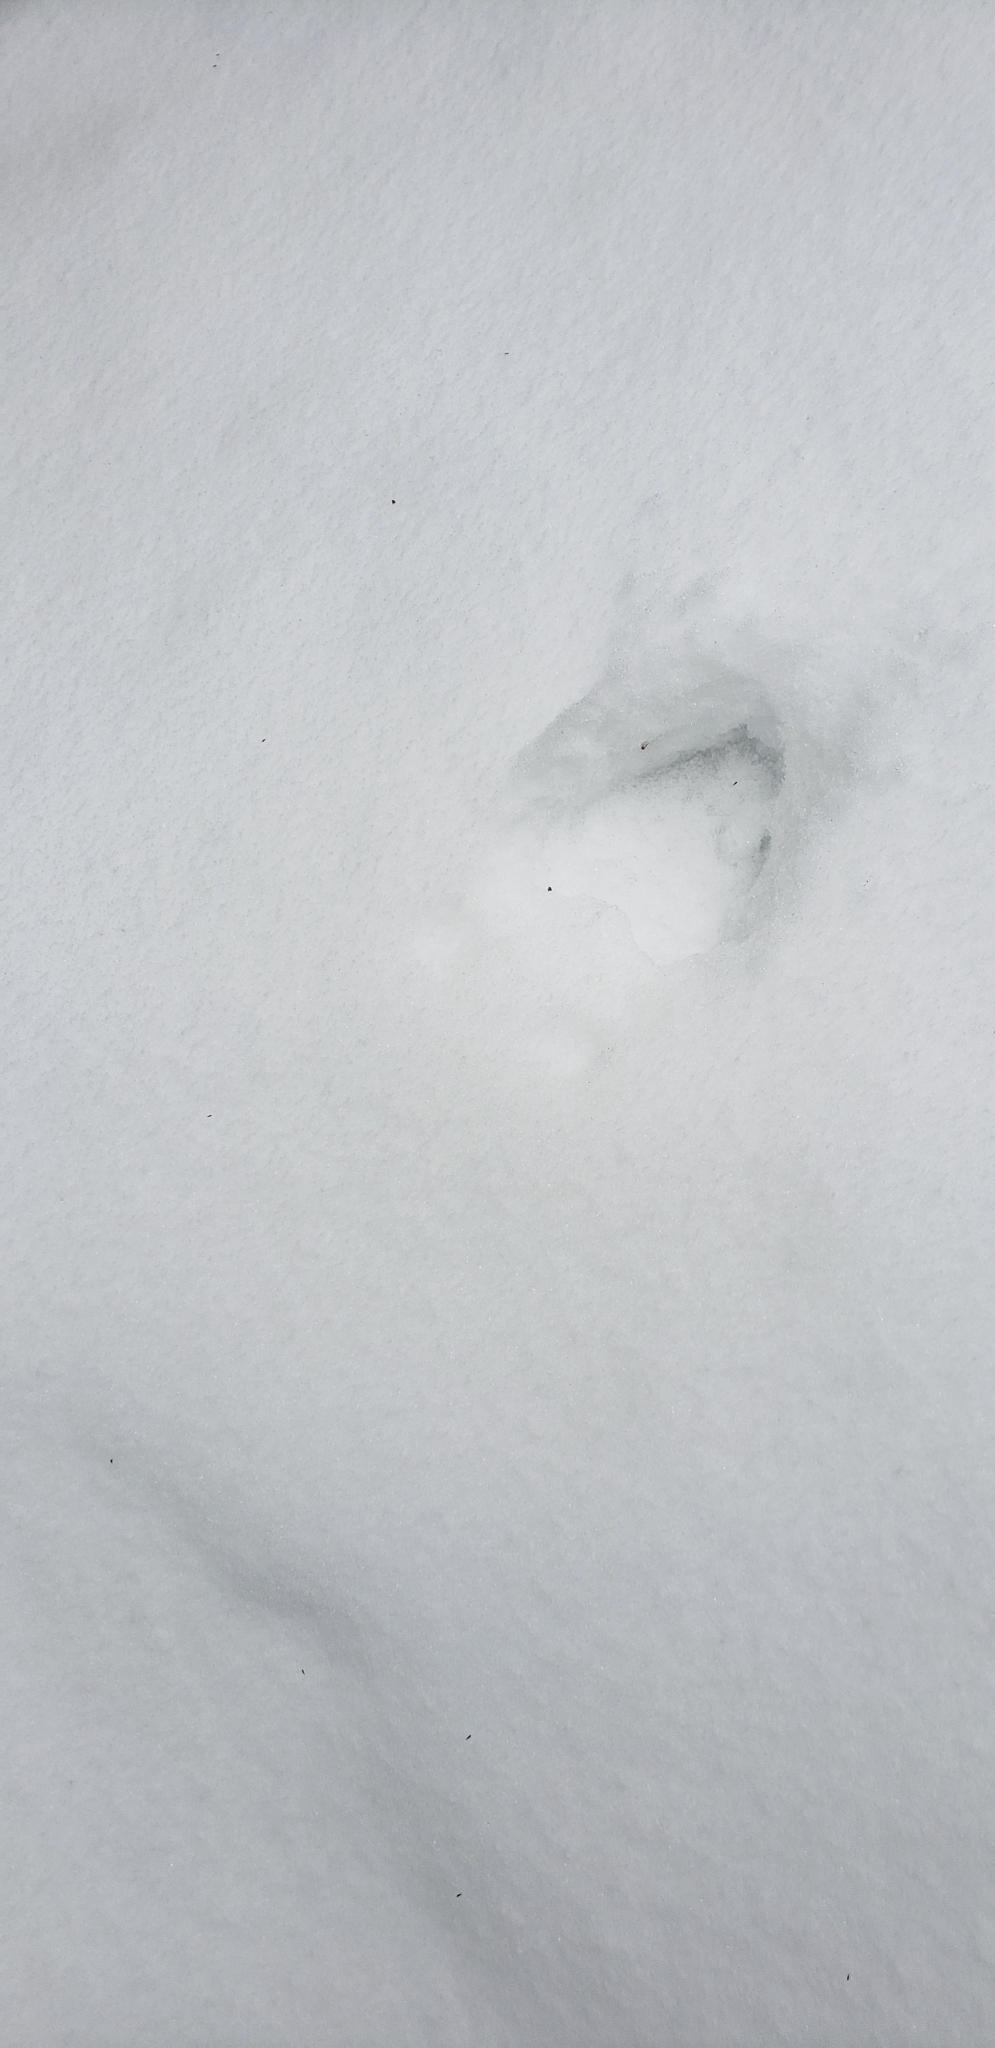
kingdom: Animalia
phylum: Chordata
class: Mammalia
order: Artiodactyla
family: Cervidae
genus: Odocoileus
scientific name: Odocoileus virginianus
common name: White-tailed deer
